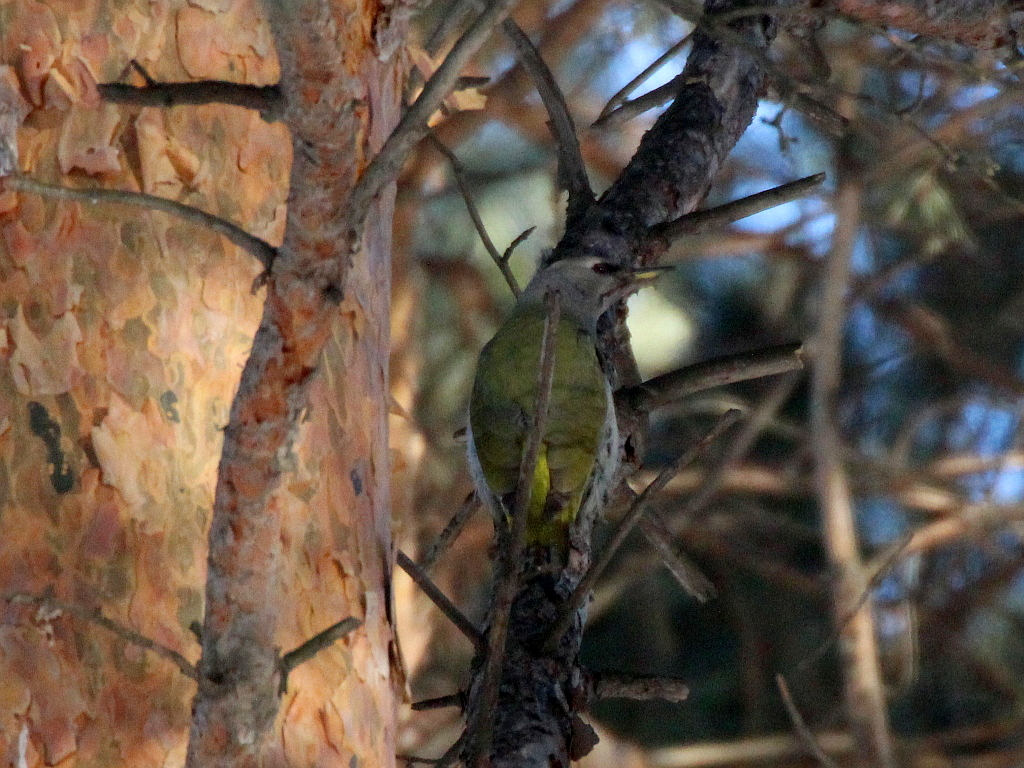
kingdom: Animalia
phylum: Chordata
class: Aves
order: Piciformes
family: Picidae
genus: Picus
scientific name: Picus canus
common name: Grey-headed woodpecker
